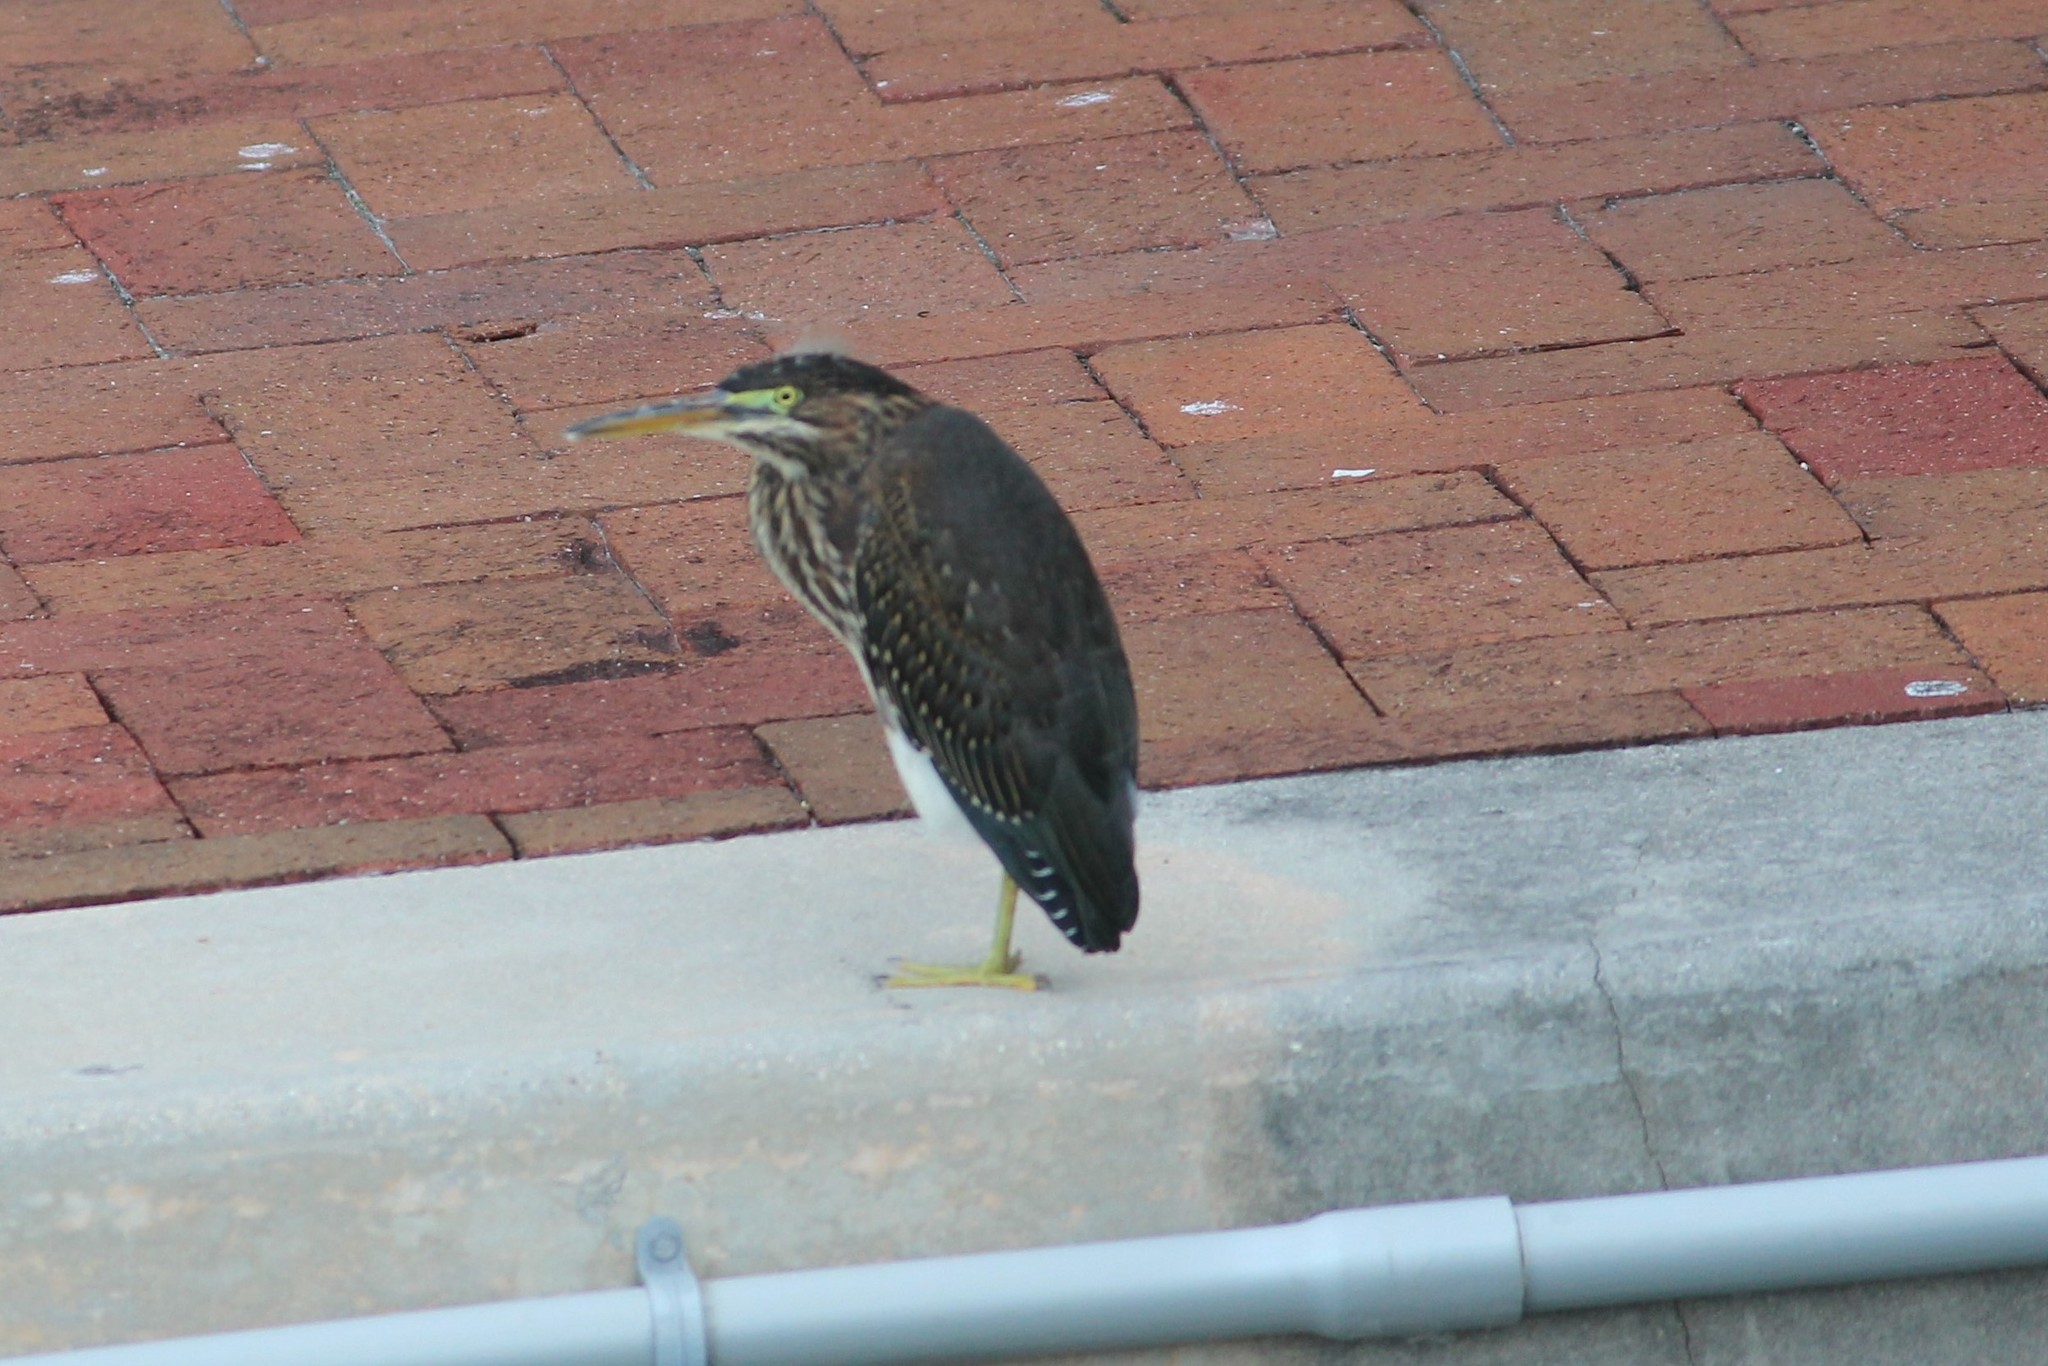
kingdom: Animalia
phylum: Chordata
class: Aves
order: Pelecaniformes
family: Ardeidae
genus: Butorides
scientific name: Butorides virescens
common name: Green heron
